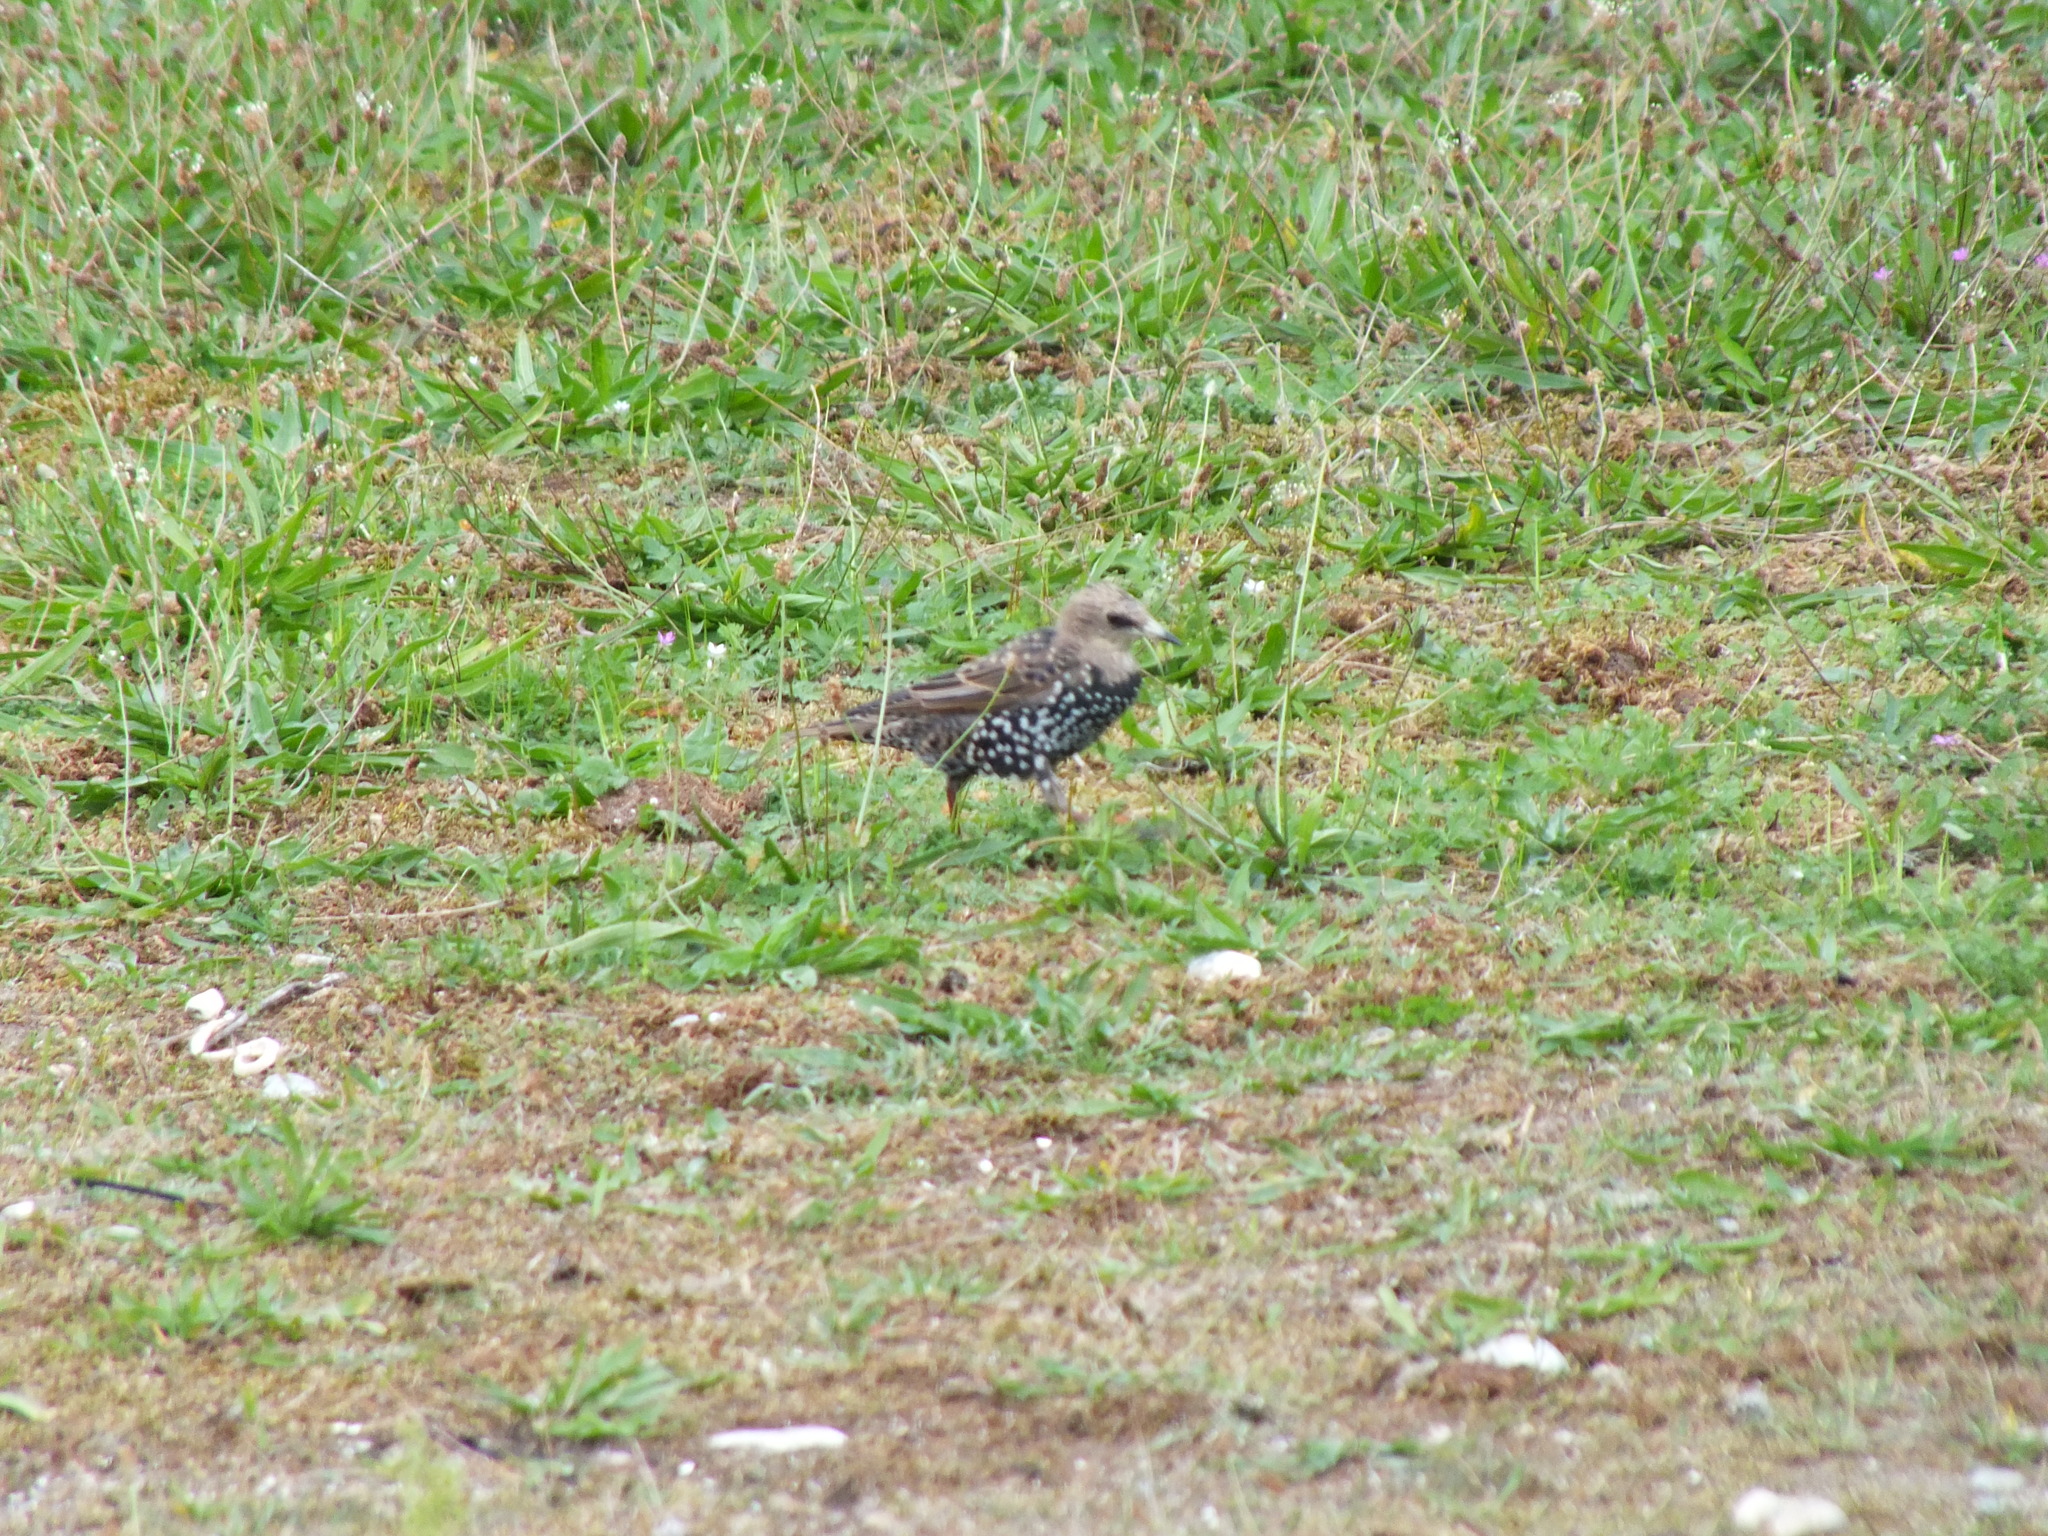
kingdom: Animalia
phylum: Chordata
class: Aves
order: Passeriformes
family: Sturnidae
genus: Sturnus
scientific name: Sturnus vulgaris
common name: Common starling
